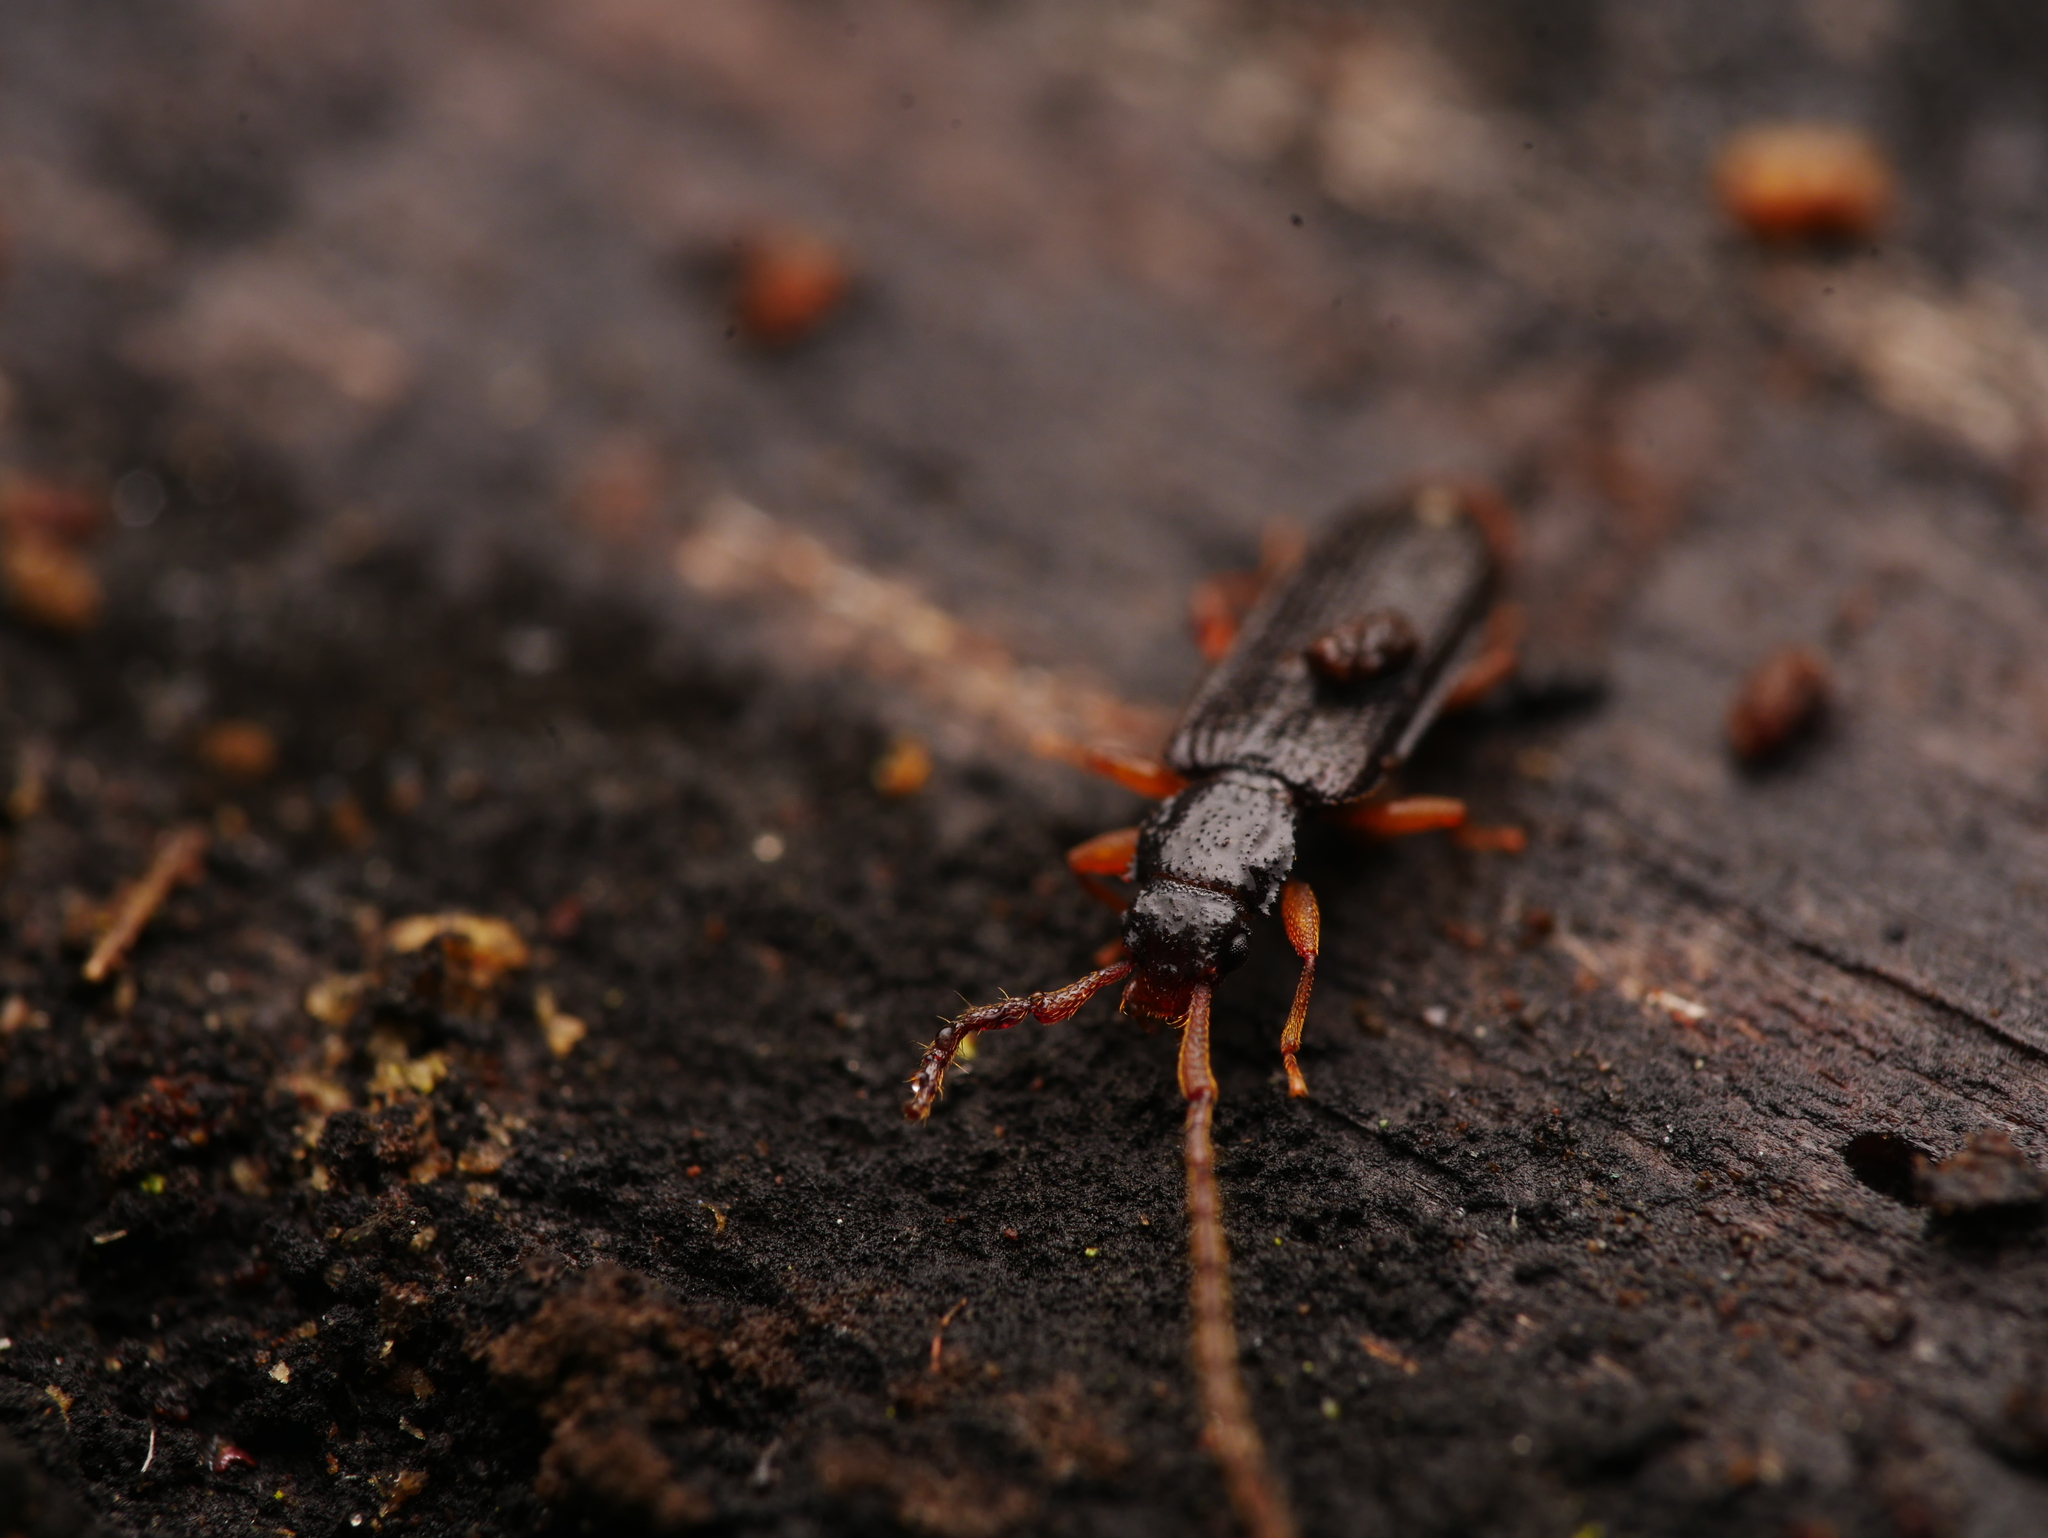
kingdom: Animalia
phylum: Arthropoda
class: Insecta
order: Coleoptera
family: Silvanidae
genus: Uleiota
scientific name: Uleiota planatus
